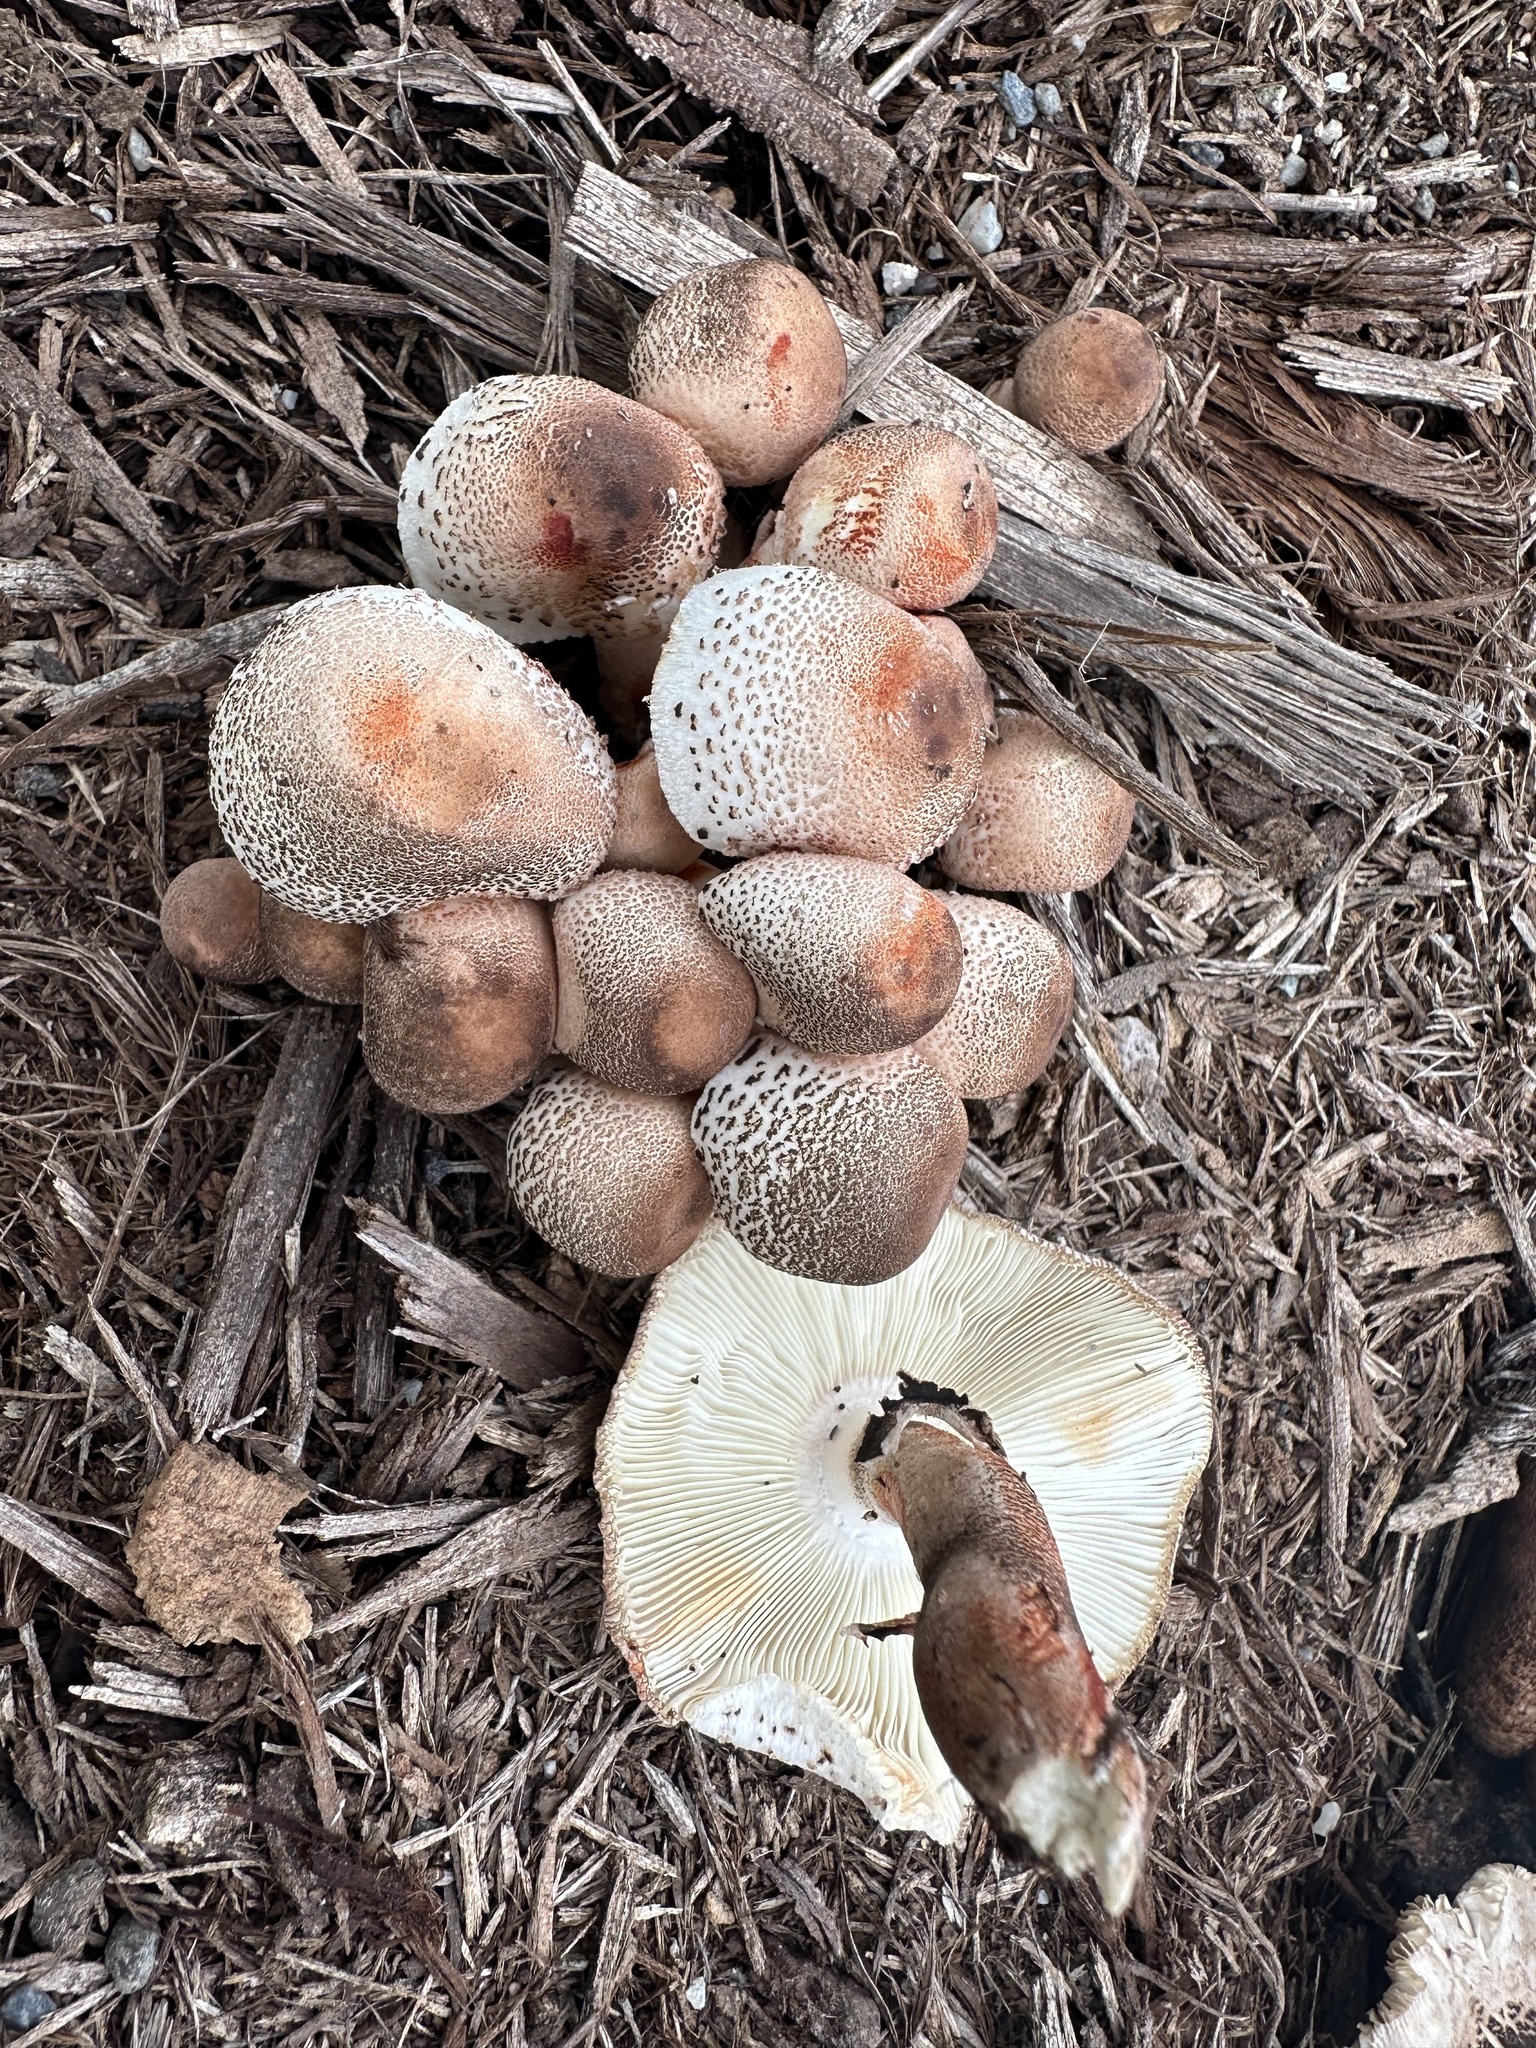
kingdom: Fungi
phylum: Basidiomycota
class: Agaricomycetes
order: Agaricales
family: Agaricaceae
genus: Leucoagaricus
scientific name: Leucoagaricus meleagris
